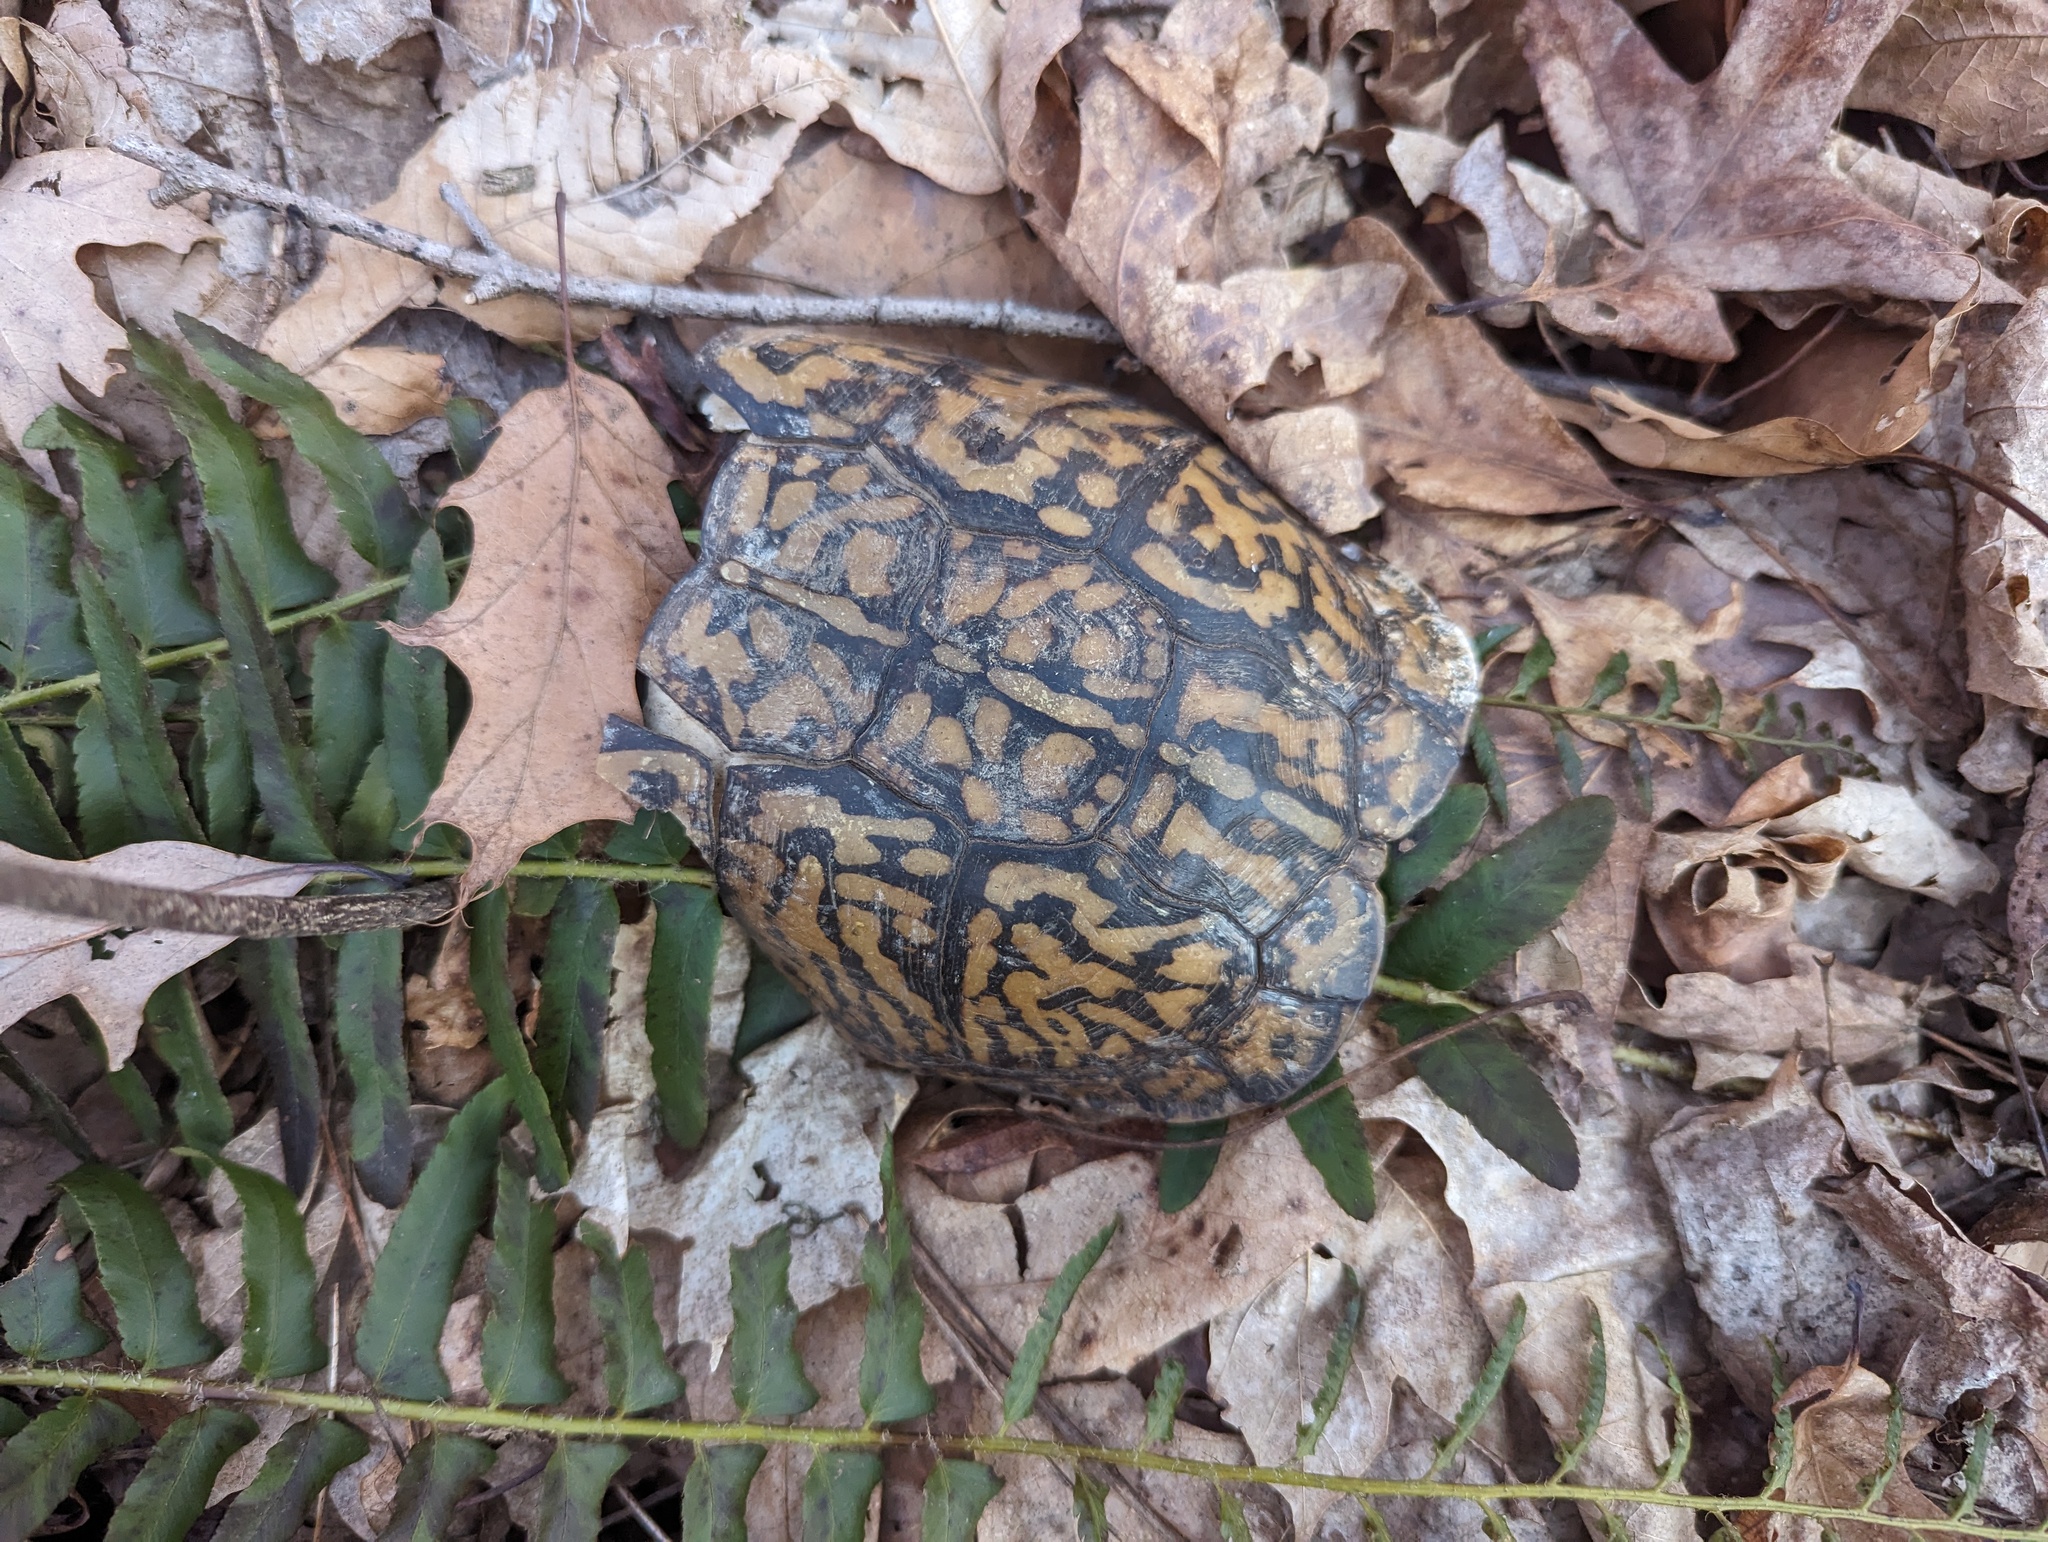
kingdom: Animalia
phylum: Chordata
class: Testudines
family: Emydidae
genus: Terrapene
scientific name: Terrapene carolina
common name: Common box turtle
